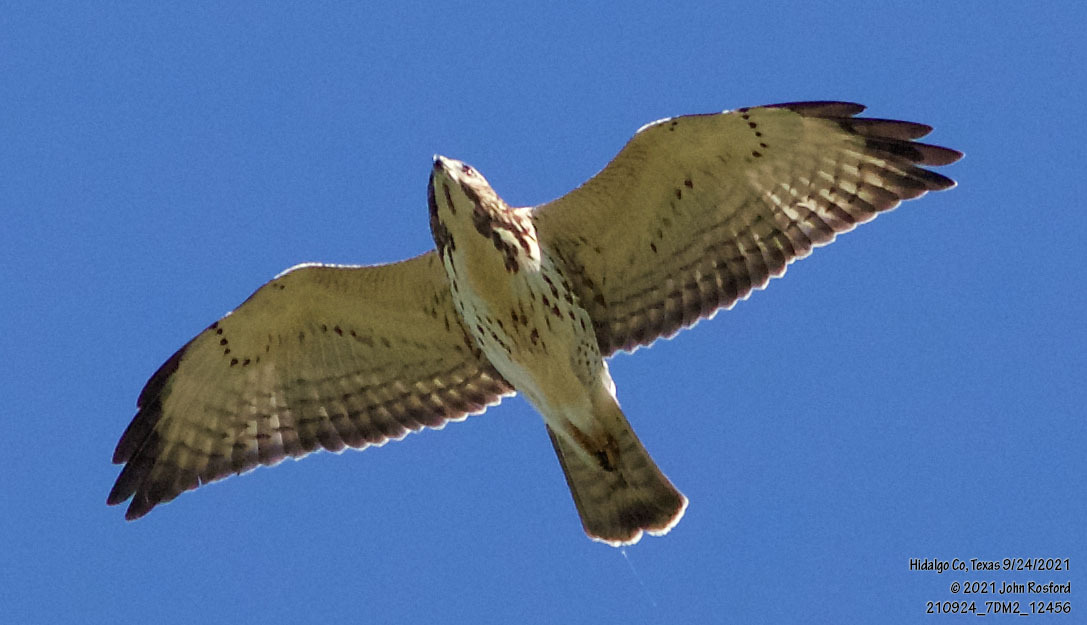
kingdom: Animalia
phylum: Chordata
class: Aves
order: Accipitriformes
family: Accipitridae
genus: Buteo
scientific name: Buteo platypterus
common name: Broad-winged hawk
